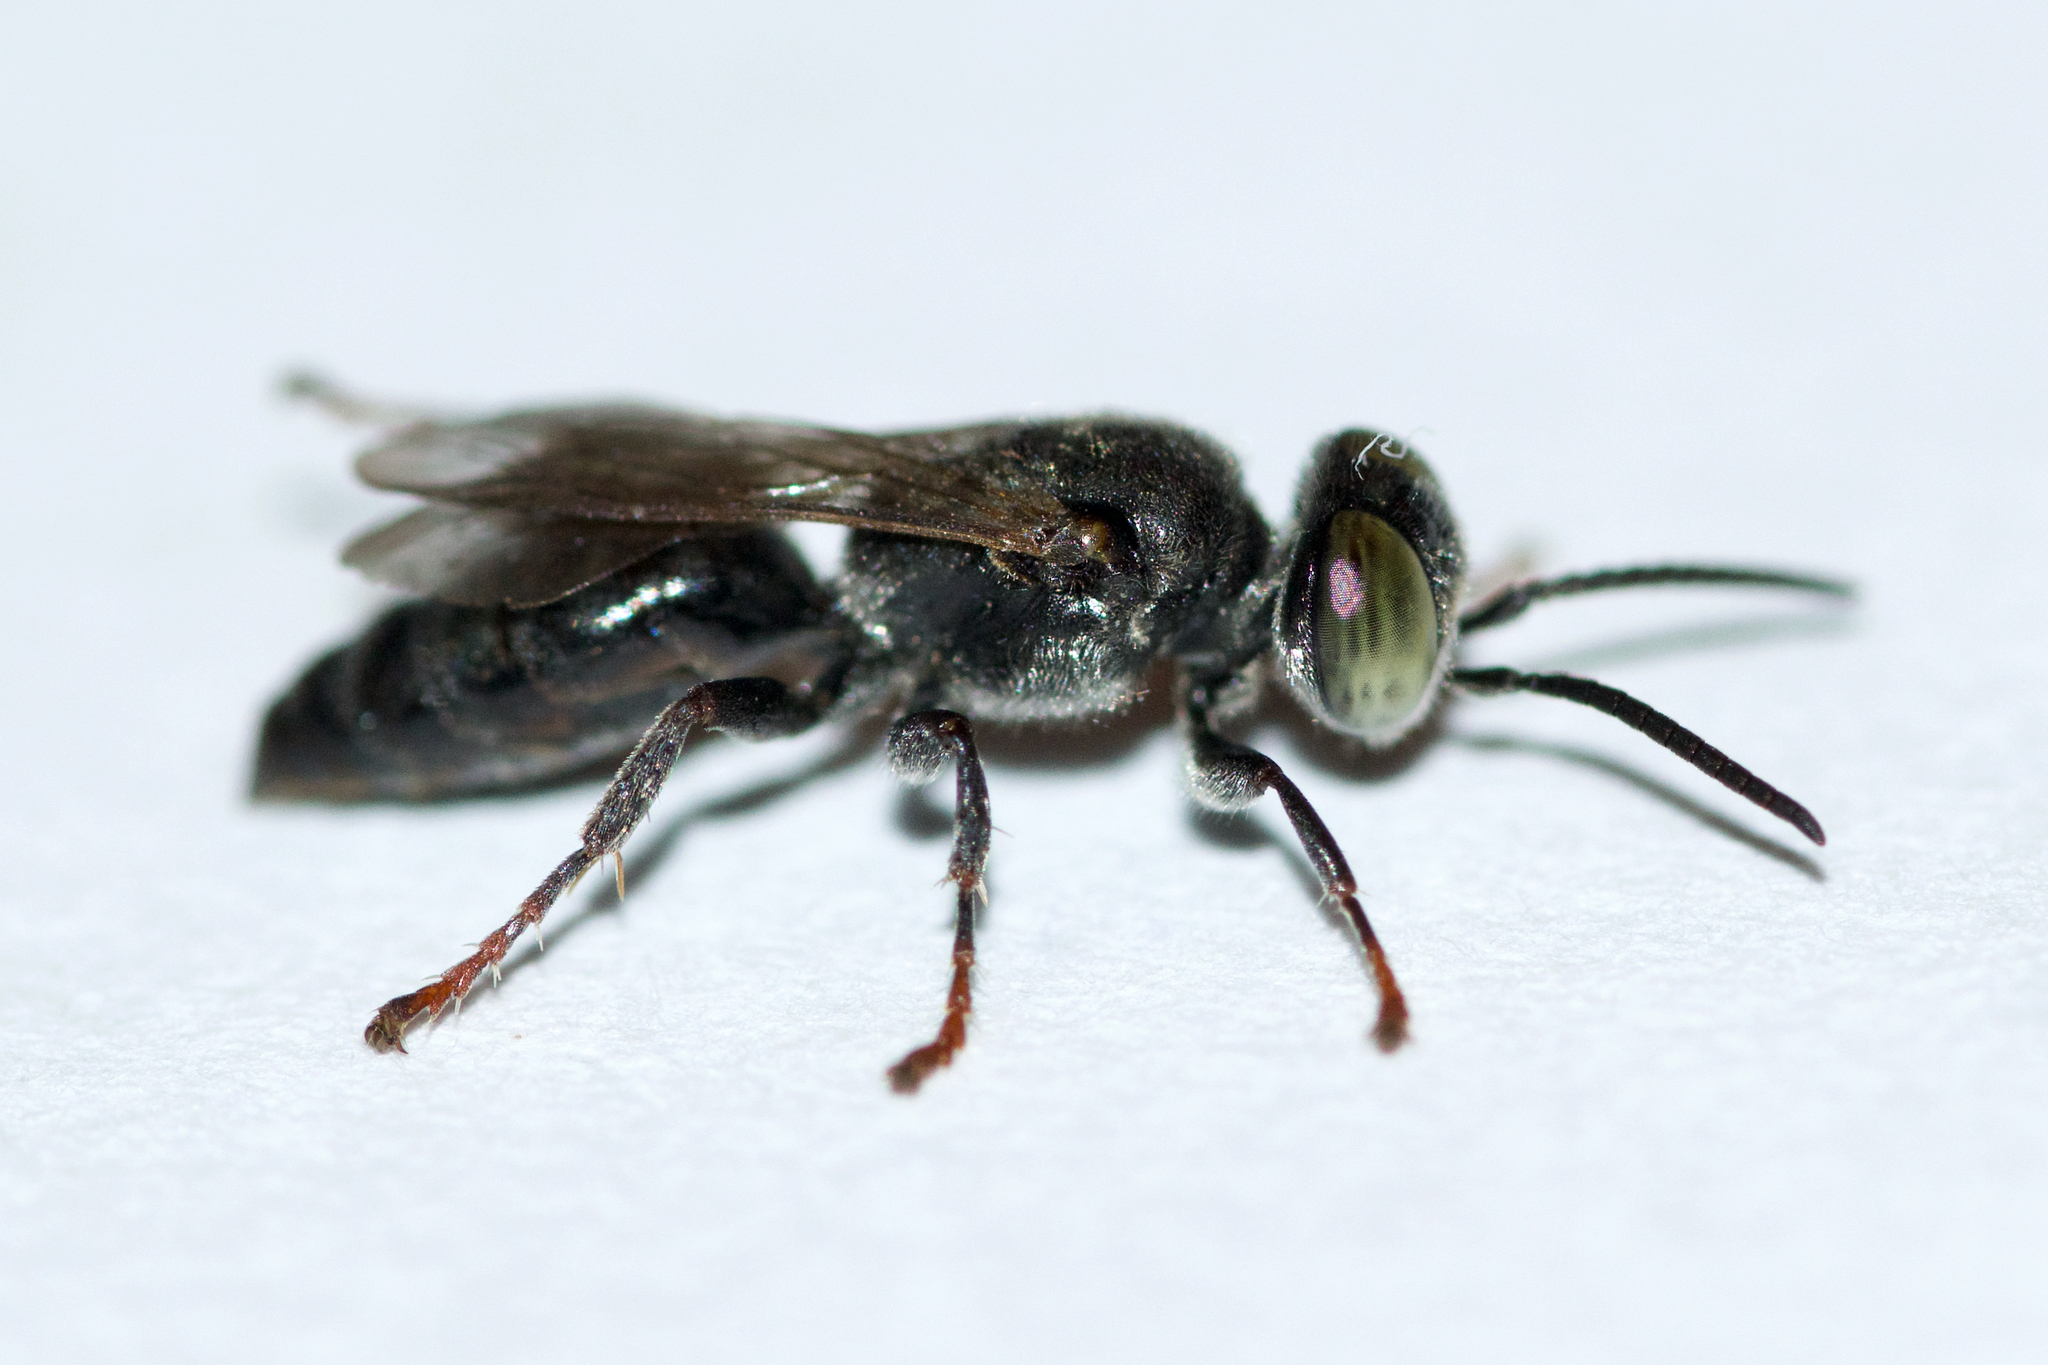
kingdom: Animalia
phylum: Arthropoda
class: Insecta
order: Hymenoptera
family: Crabronidae
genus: Tachytes
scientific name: Tachytes intermedius
